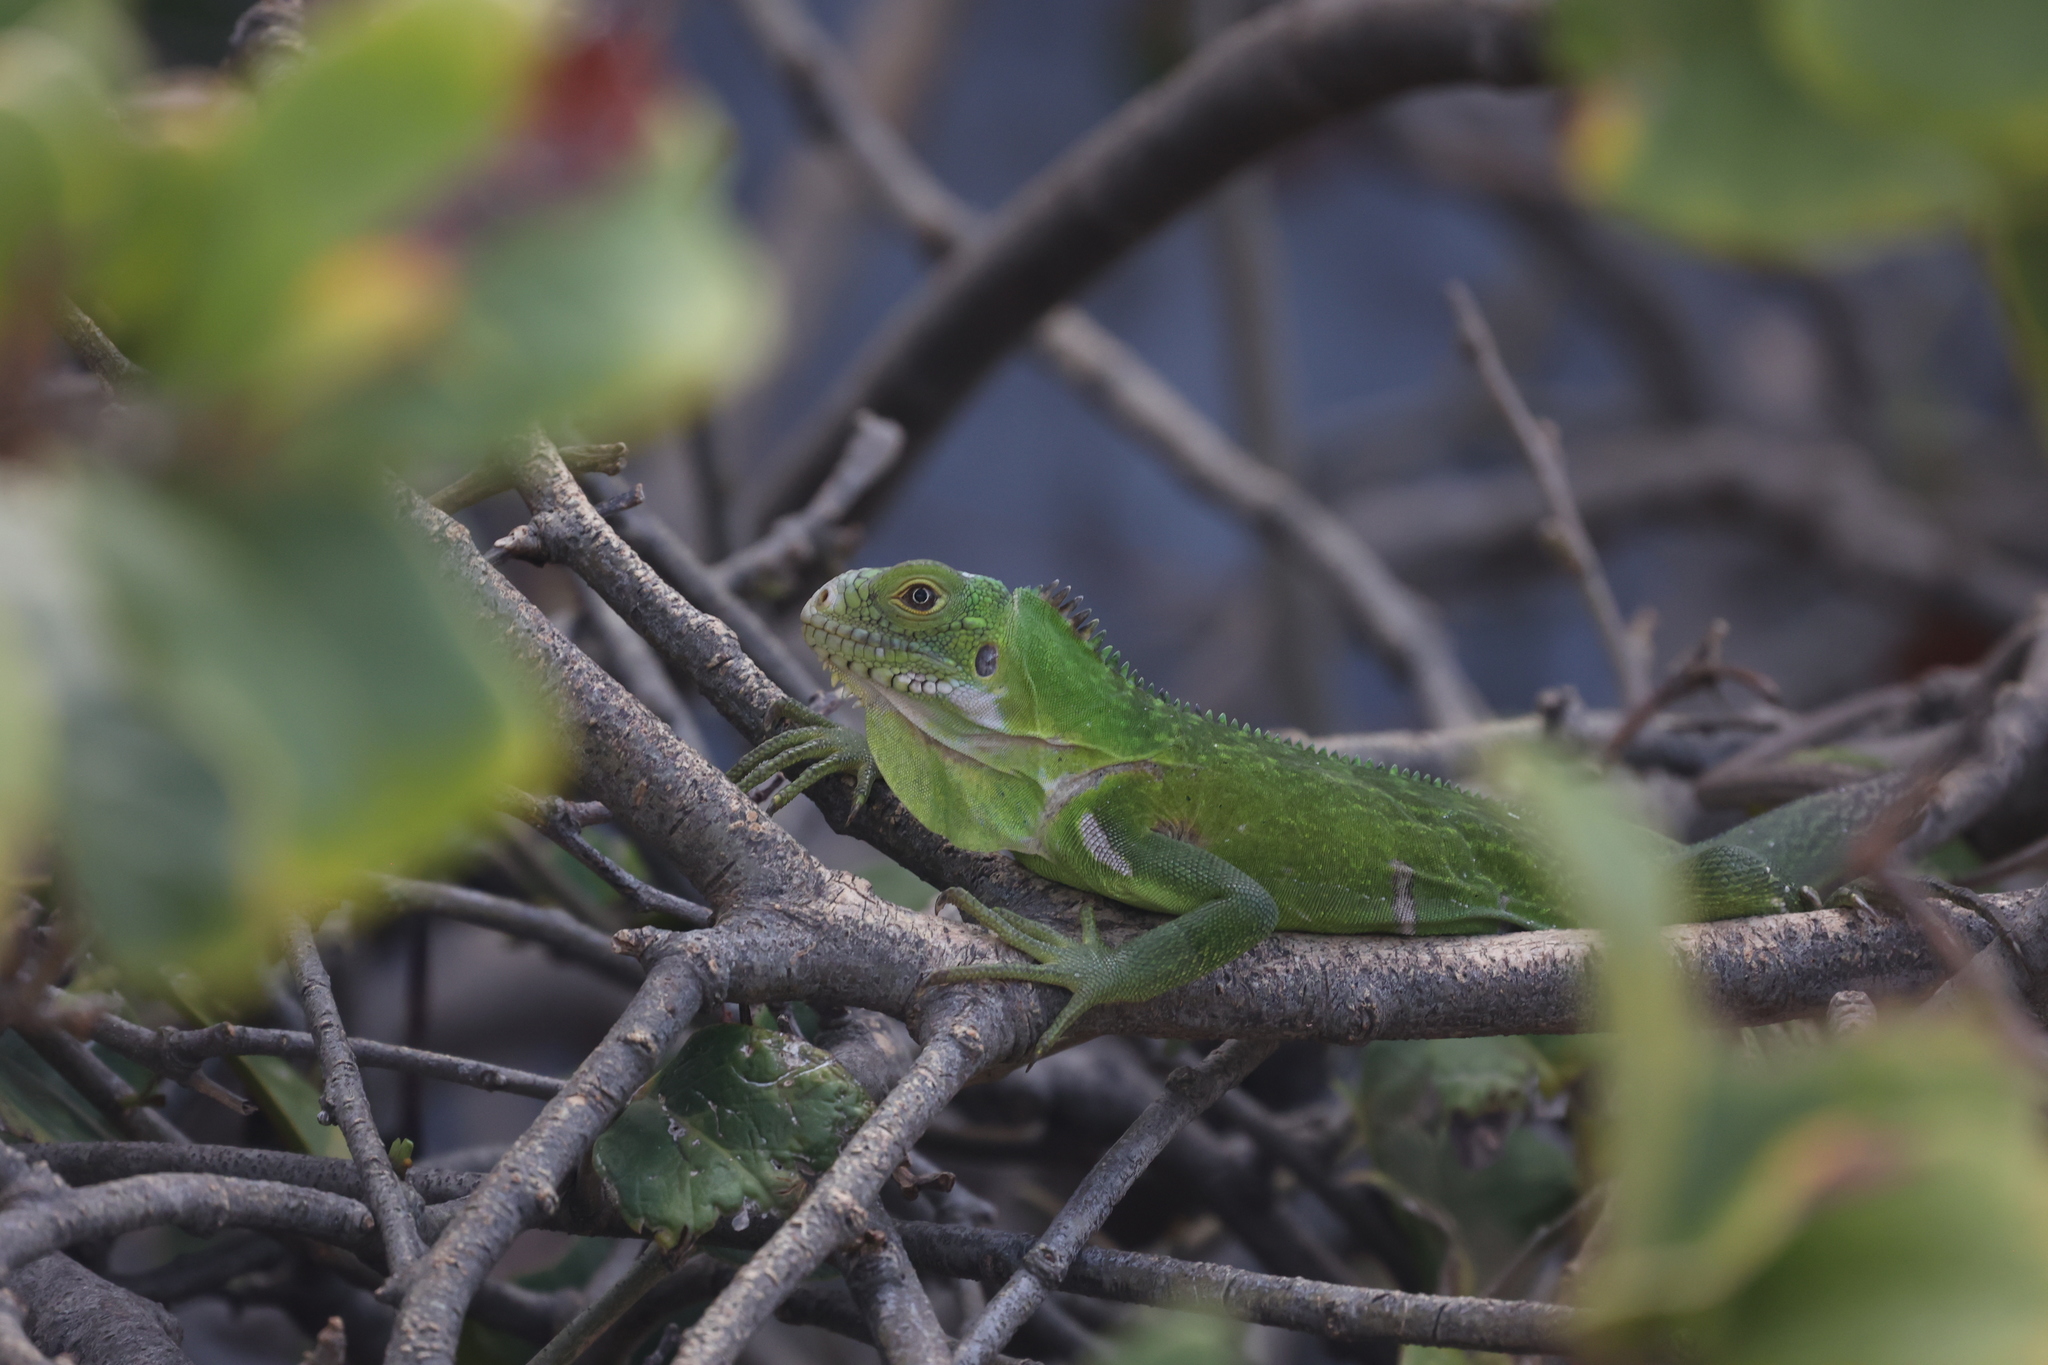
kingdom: Animalia
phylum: Chordata
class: Squamata
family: Iguanidae
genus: Iguana
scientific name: Iguana delicatissima
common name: West indian iguana
